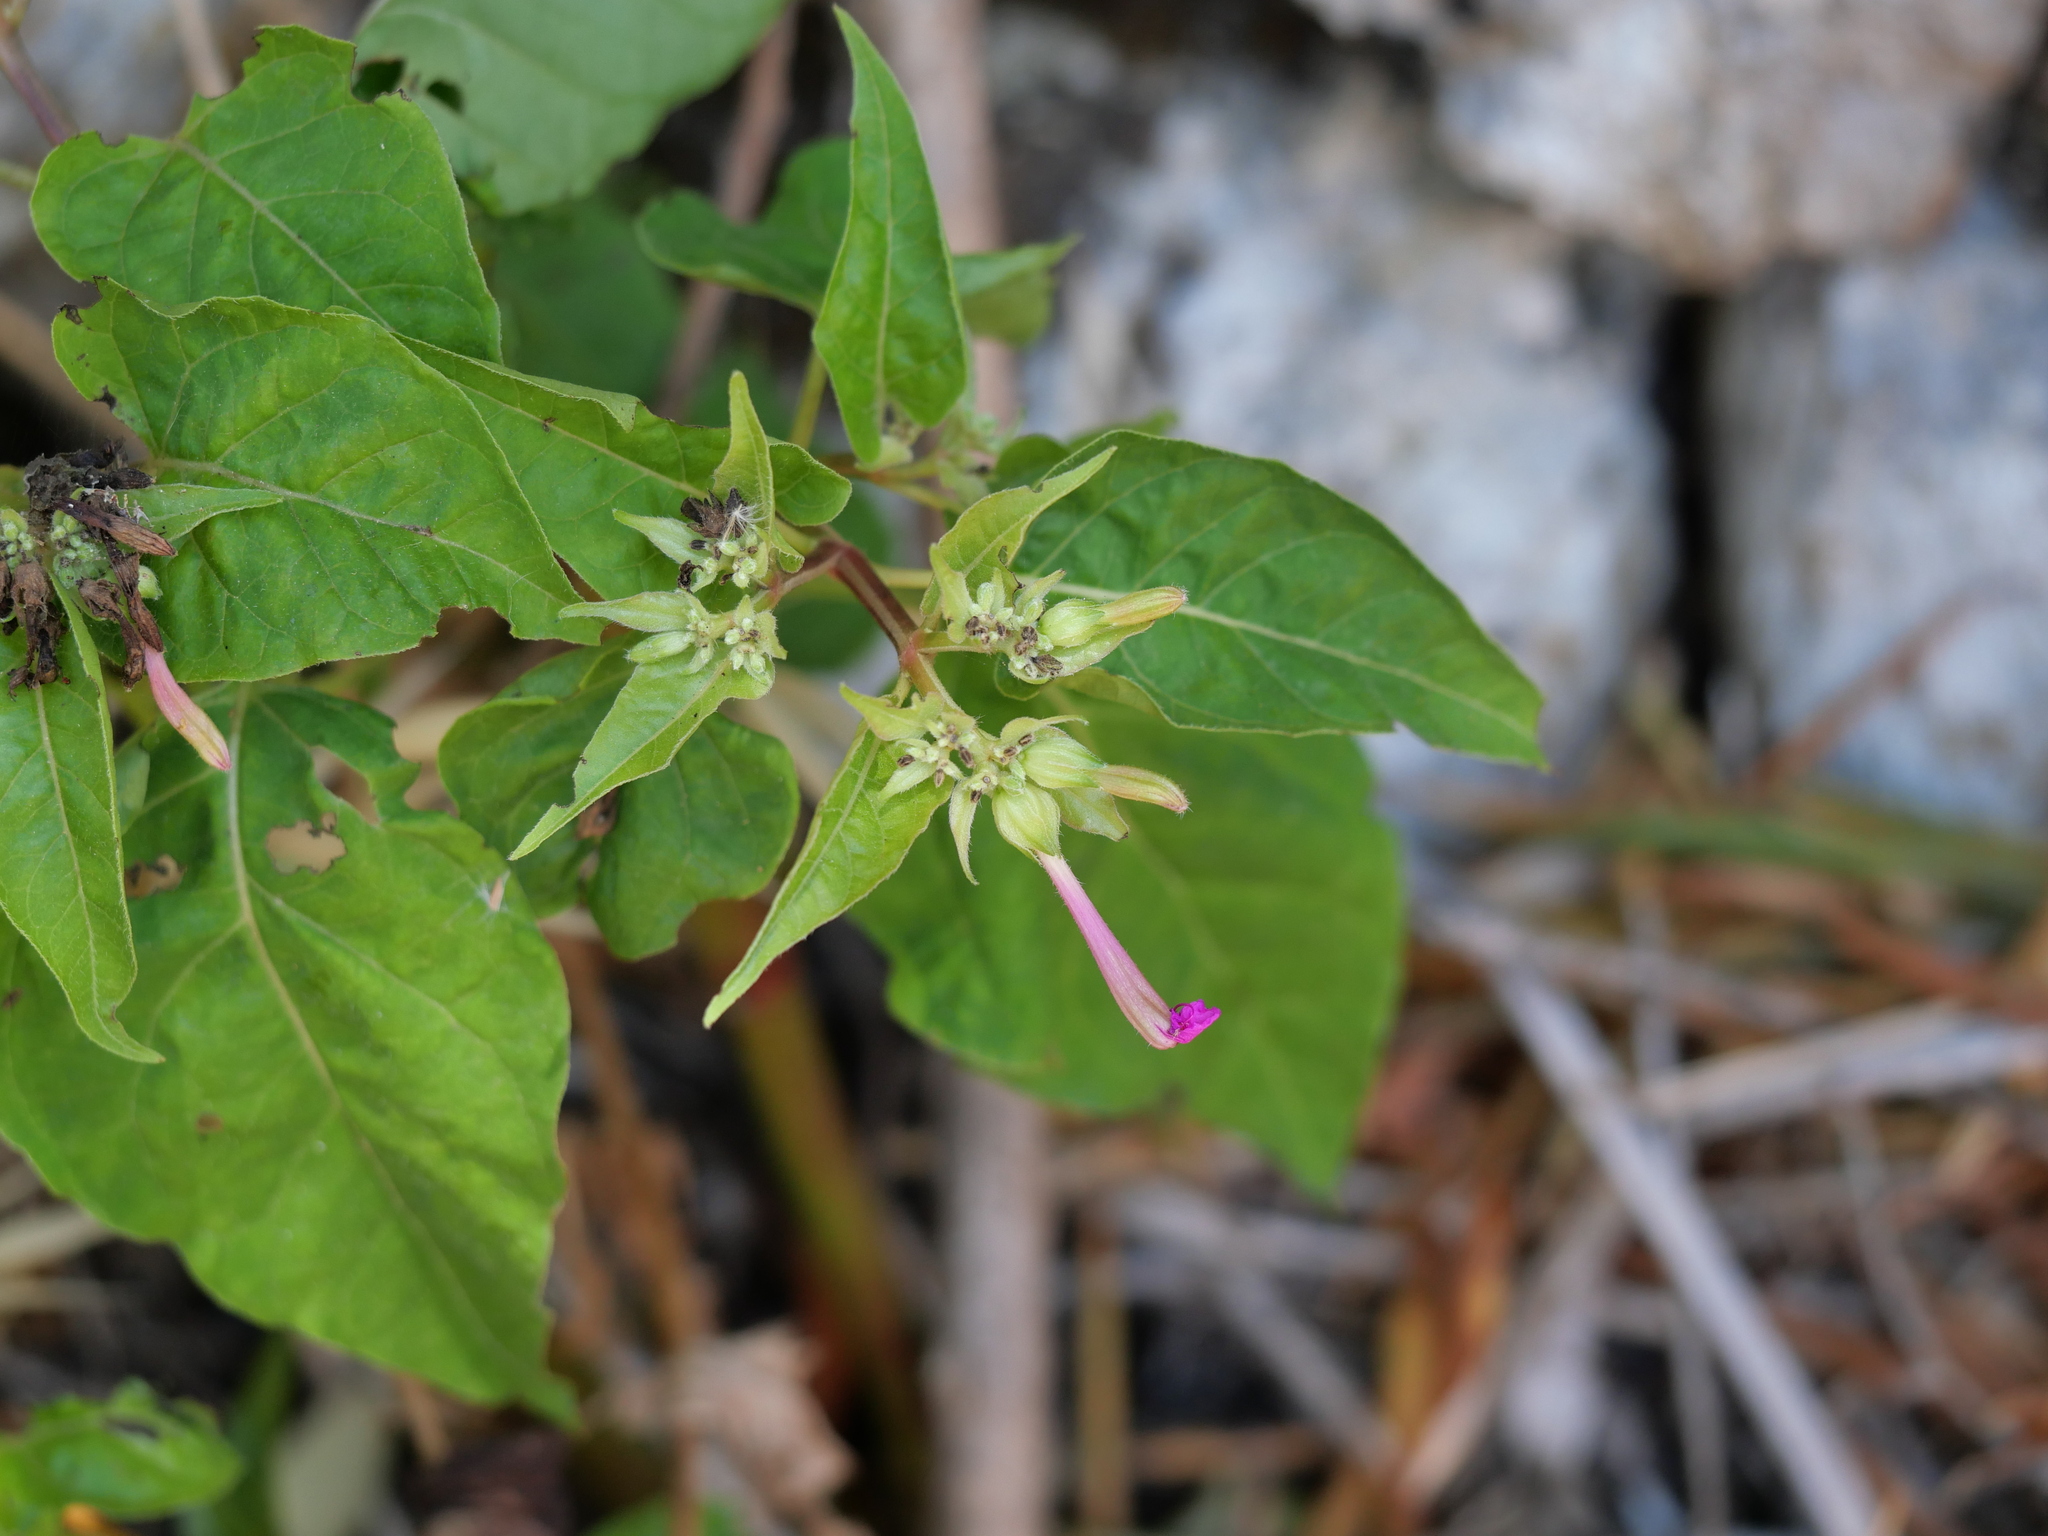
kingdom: Plantae
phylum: Tracheophyta
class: Magnoliopsida
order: Caryophyllales
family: Nyctaginaceae
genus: Mirabilis
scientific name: Mirabilis jalapa
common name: Marvel-of-peru
